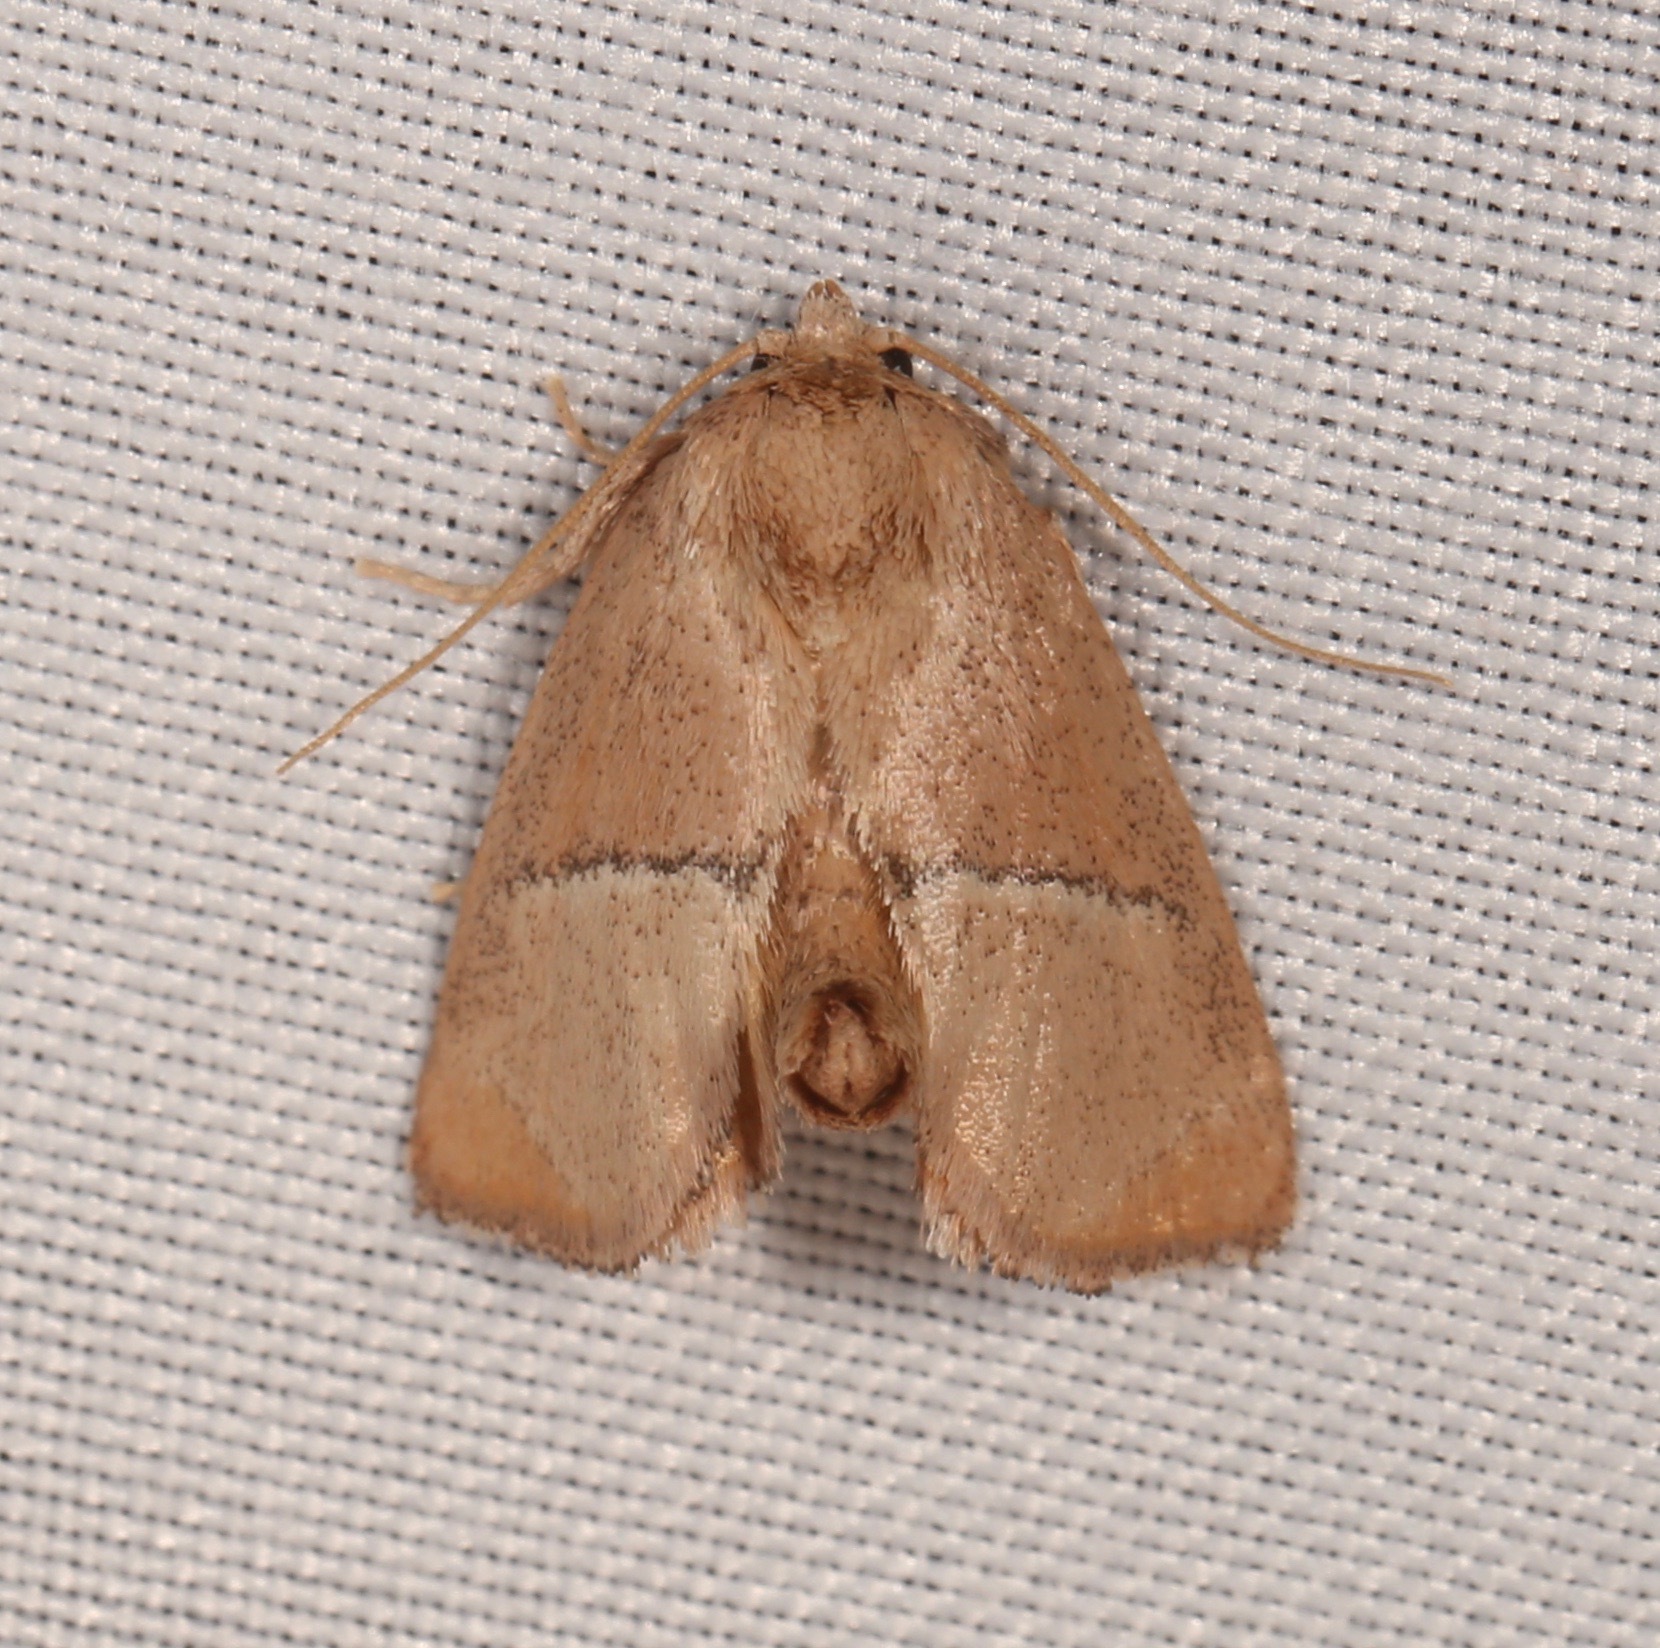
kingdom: Animalia
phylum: Arthropoda
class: Insecta
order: Lepidoptera
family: Limacodidae
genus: Apoda
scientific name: Apoda rectilinea
